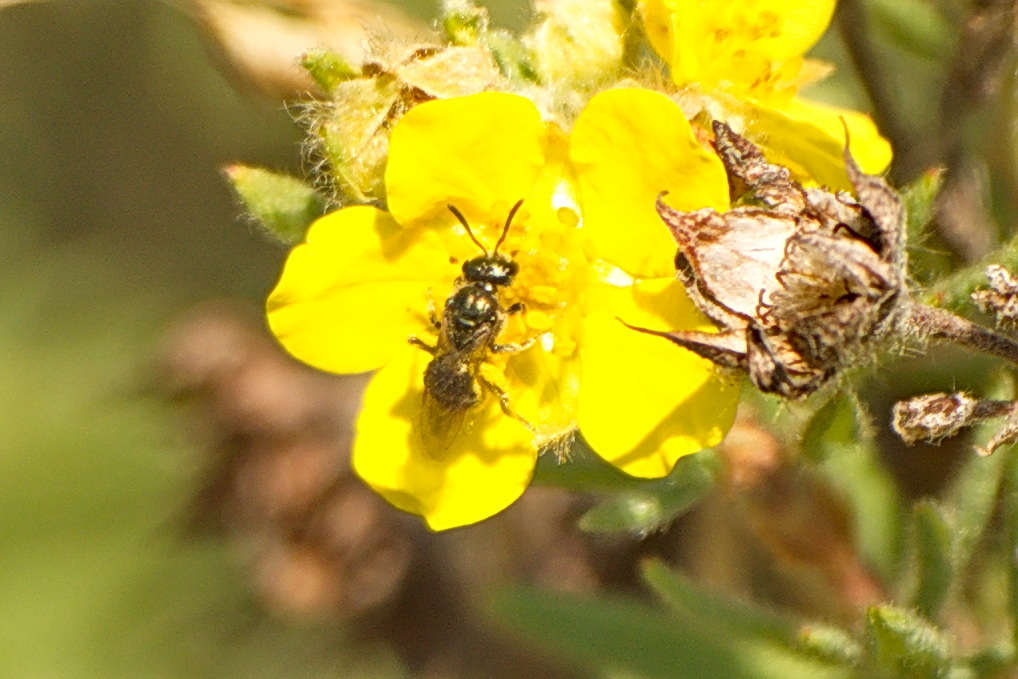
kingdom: Animalia
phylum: Arthropoda
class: Insecta
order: Hymenoptera
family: Halictidae
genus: Dialictus
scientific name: Dialictus
